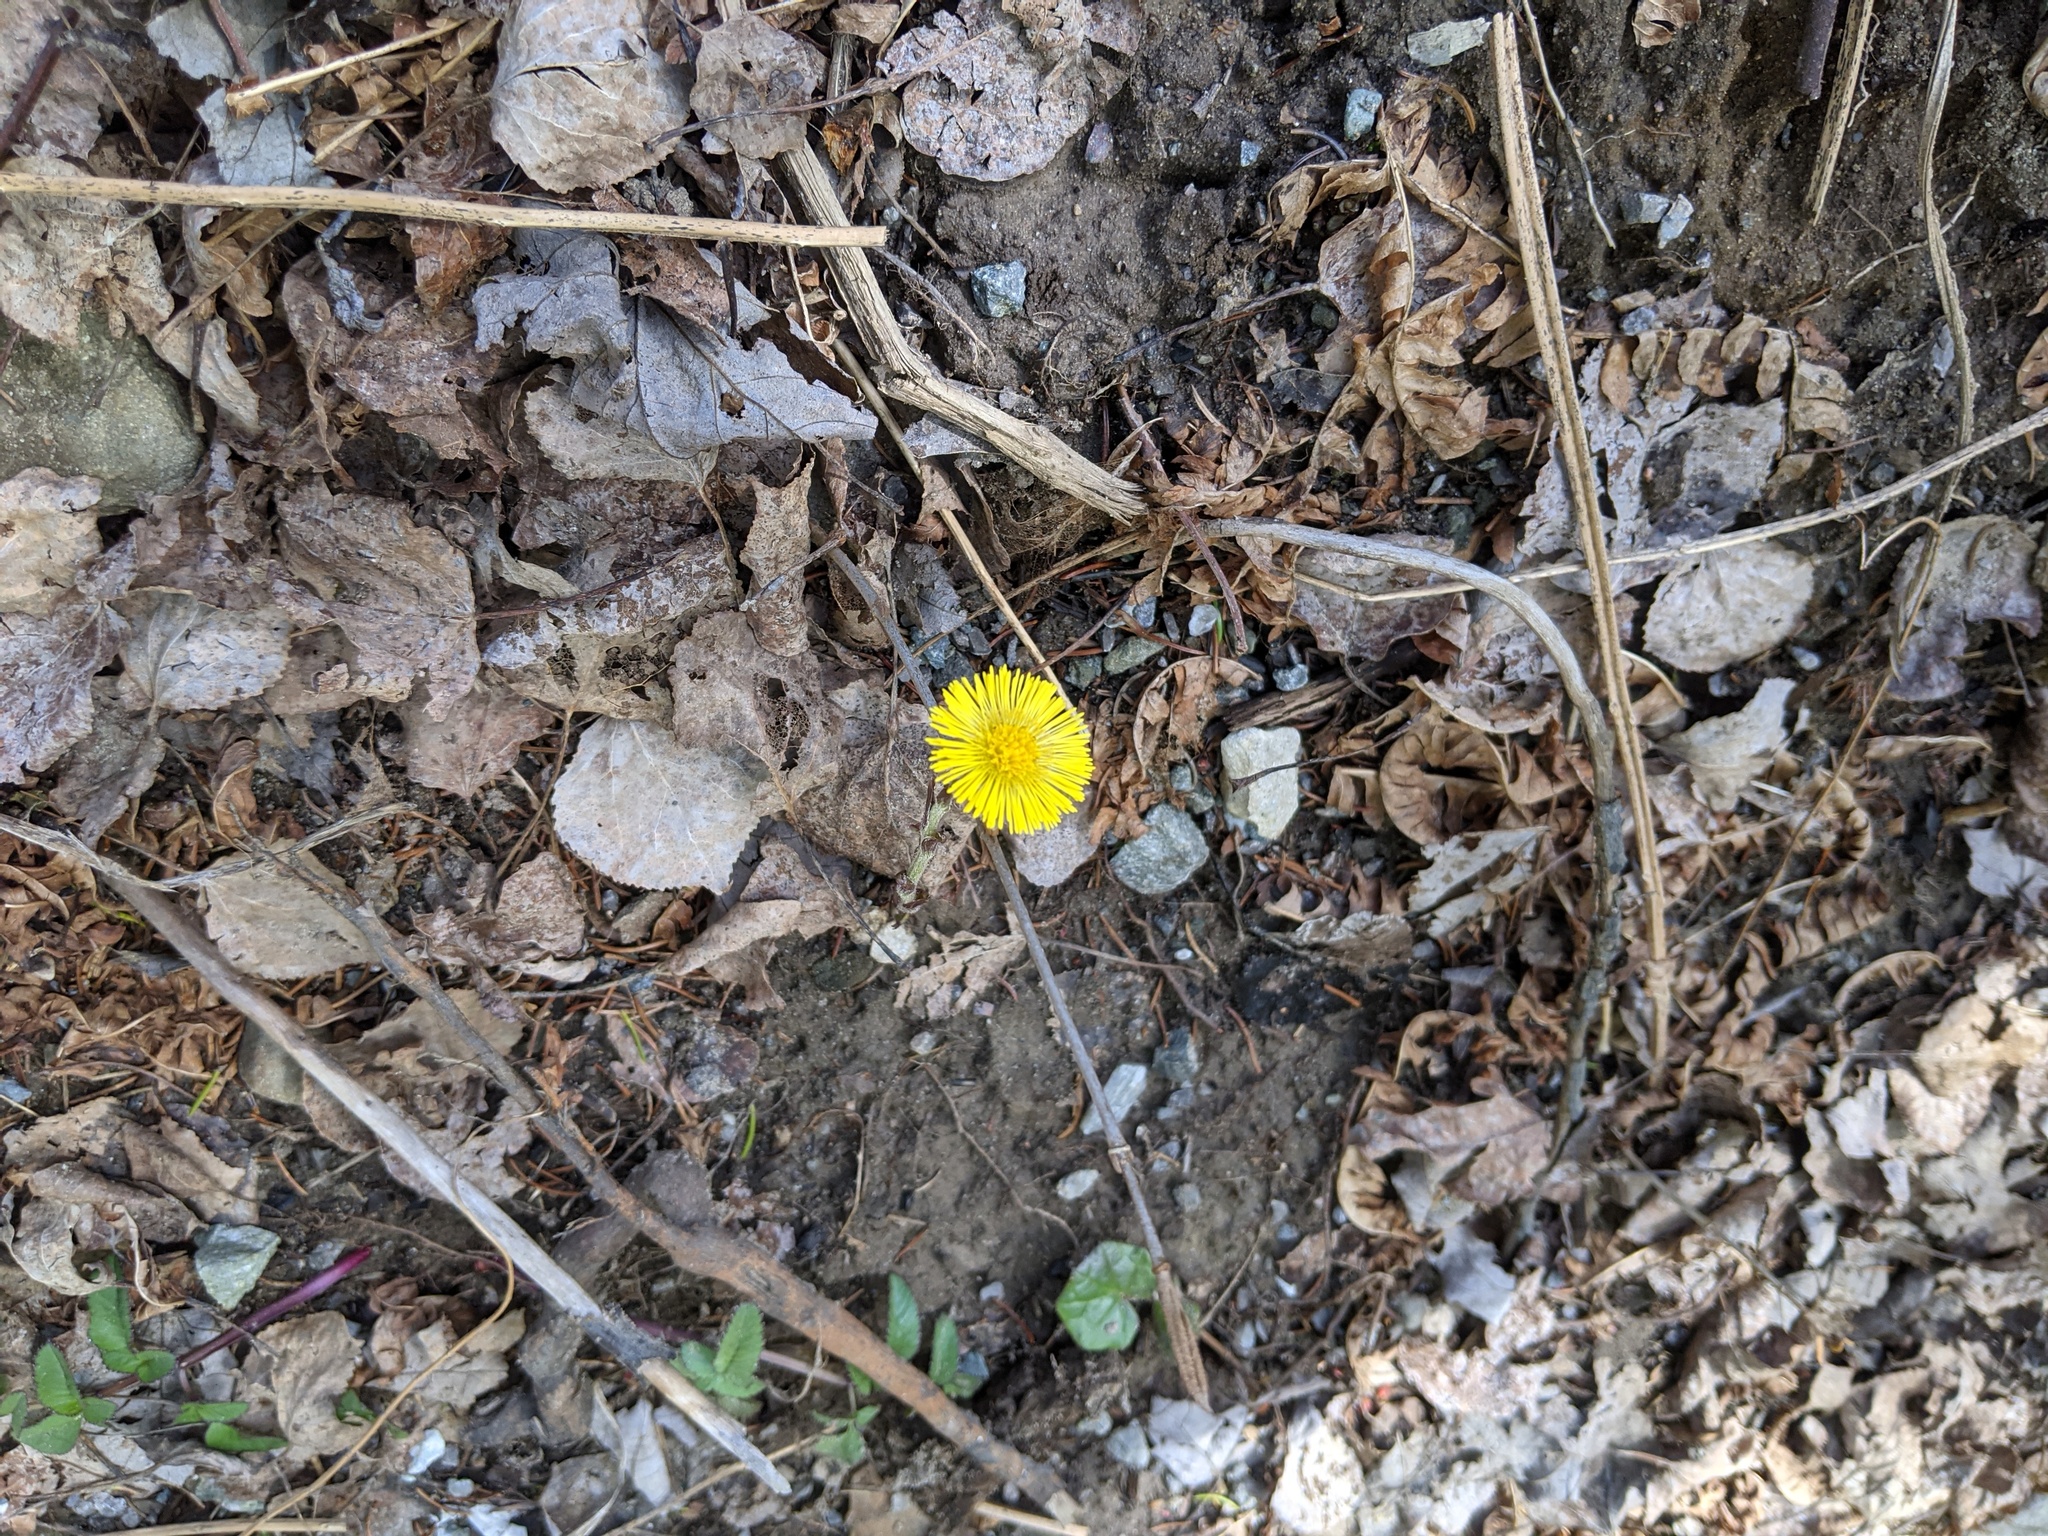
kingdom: Plantae
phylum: Tracheophyta
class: Magnoliopsida
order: Asterales
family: Asteraceae
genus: Tussilago
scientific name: Tussilago farfara
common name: Coltsfoot
